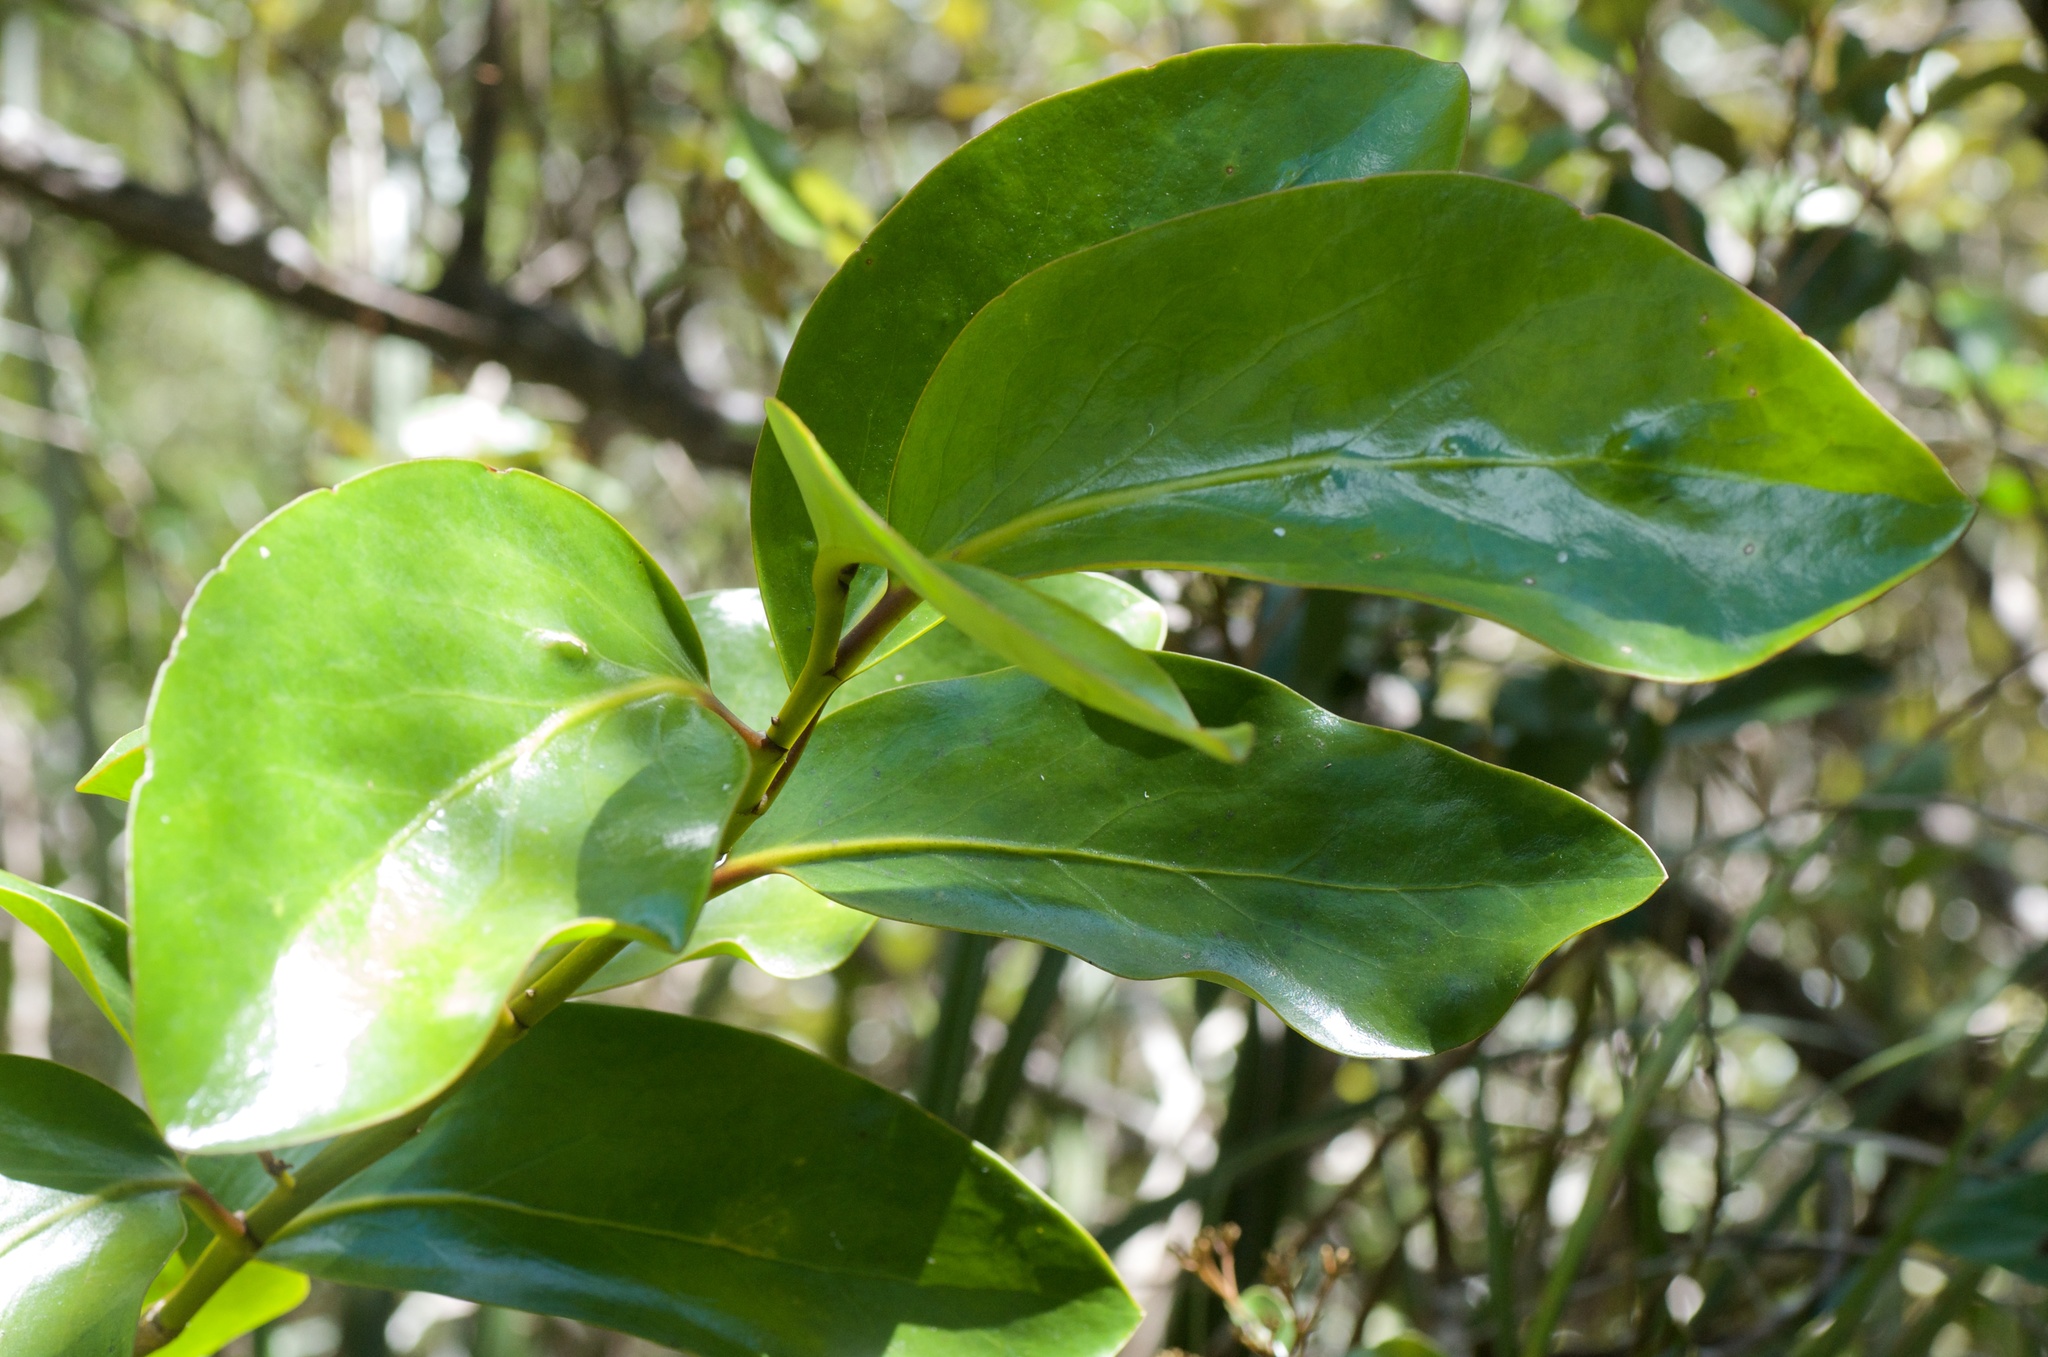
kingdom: Plantae
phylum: Tracheophyta
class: Magnoliopsida
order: Apiales
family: Griseliniaceae
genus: Griselinia
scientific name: Griselinia lucida
